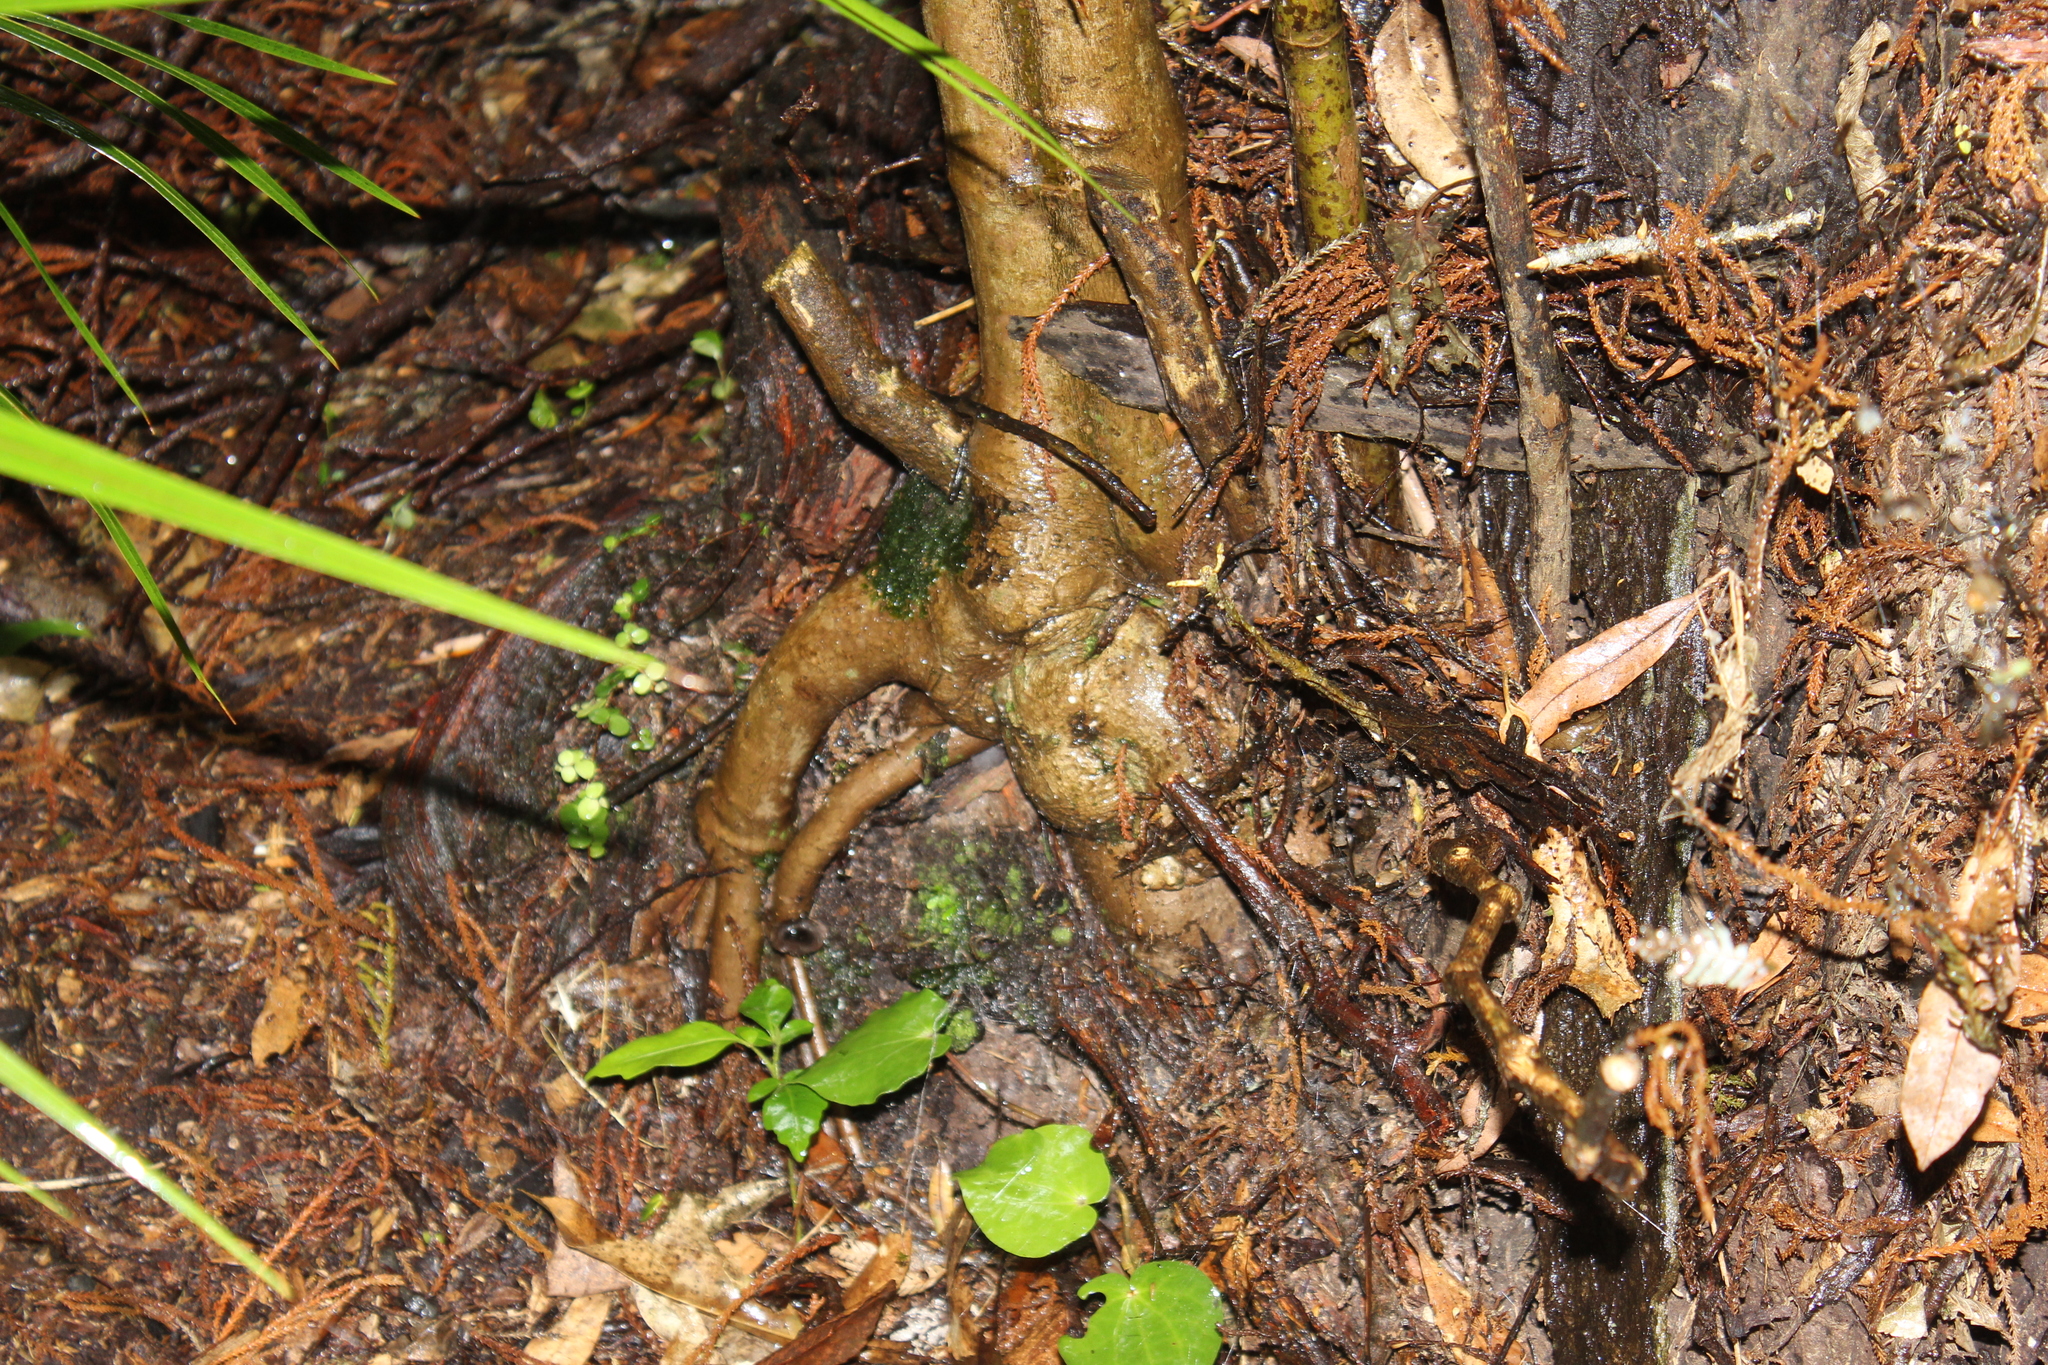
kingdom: Plantae
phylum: Tracheophyta
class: Magnoliopsida
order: Piperales
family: Piperaceae
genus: Macropiper
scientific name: Macropiper excelsum
